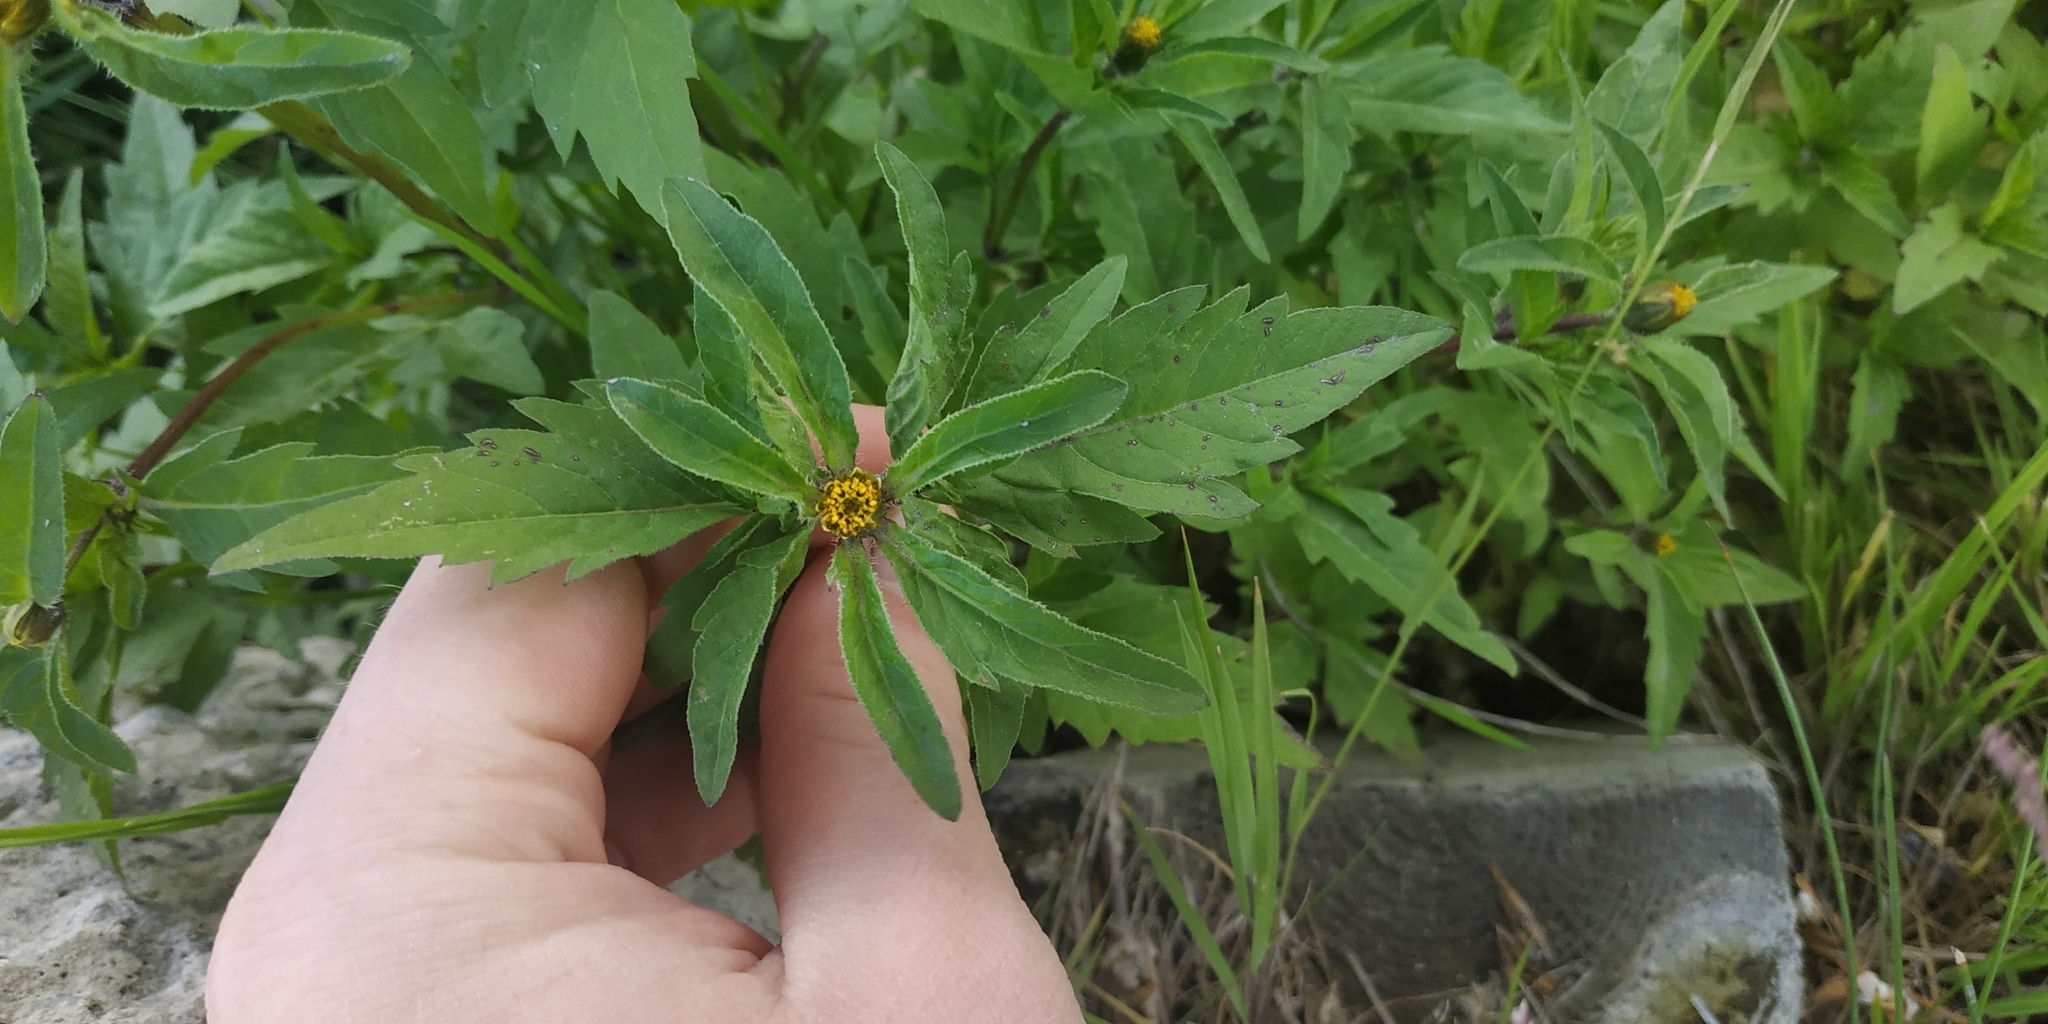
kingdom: Plantae
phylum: Tracheophyta
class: Magnoliopsida
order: Asterales
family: Asteraceae
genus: Bidens
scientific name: Bidens tripartita
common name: Trifid bur-marigold
